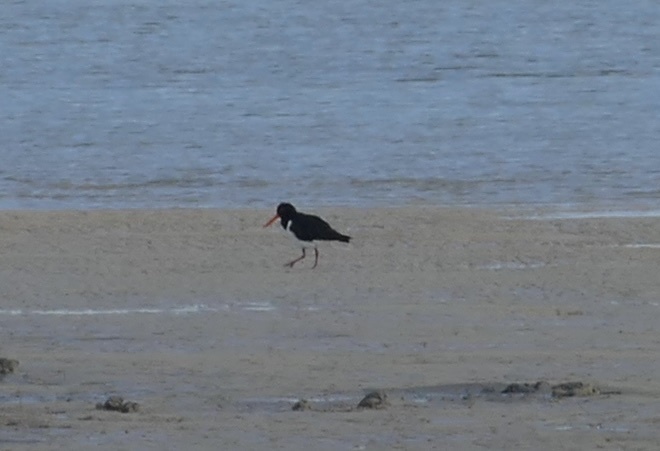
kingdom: Animalia
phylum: Chordata
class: Aves
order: Charadriiformes
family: Haematopodidae
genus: Haematopus
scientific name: Haematopus longirostris
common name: Pied oystercatcher
